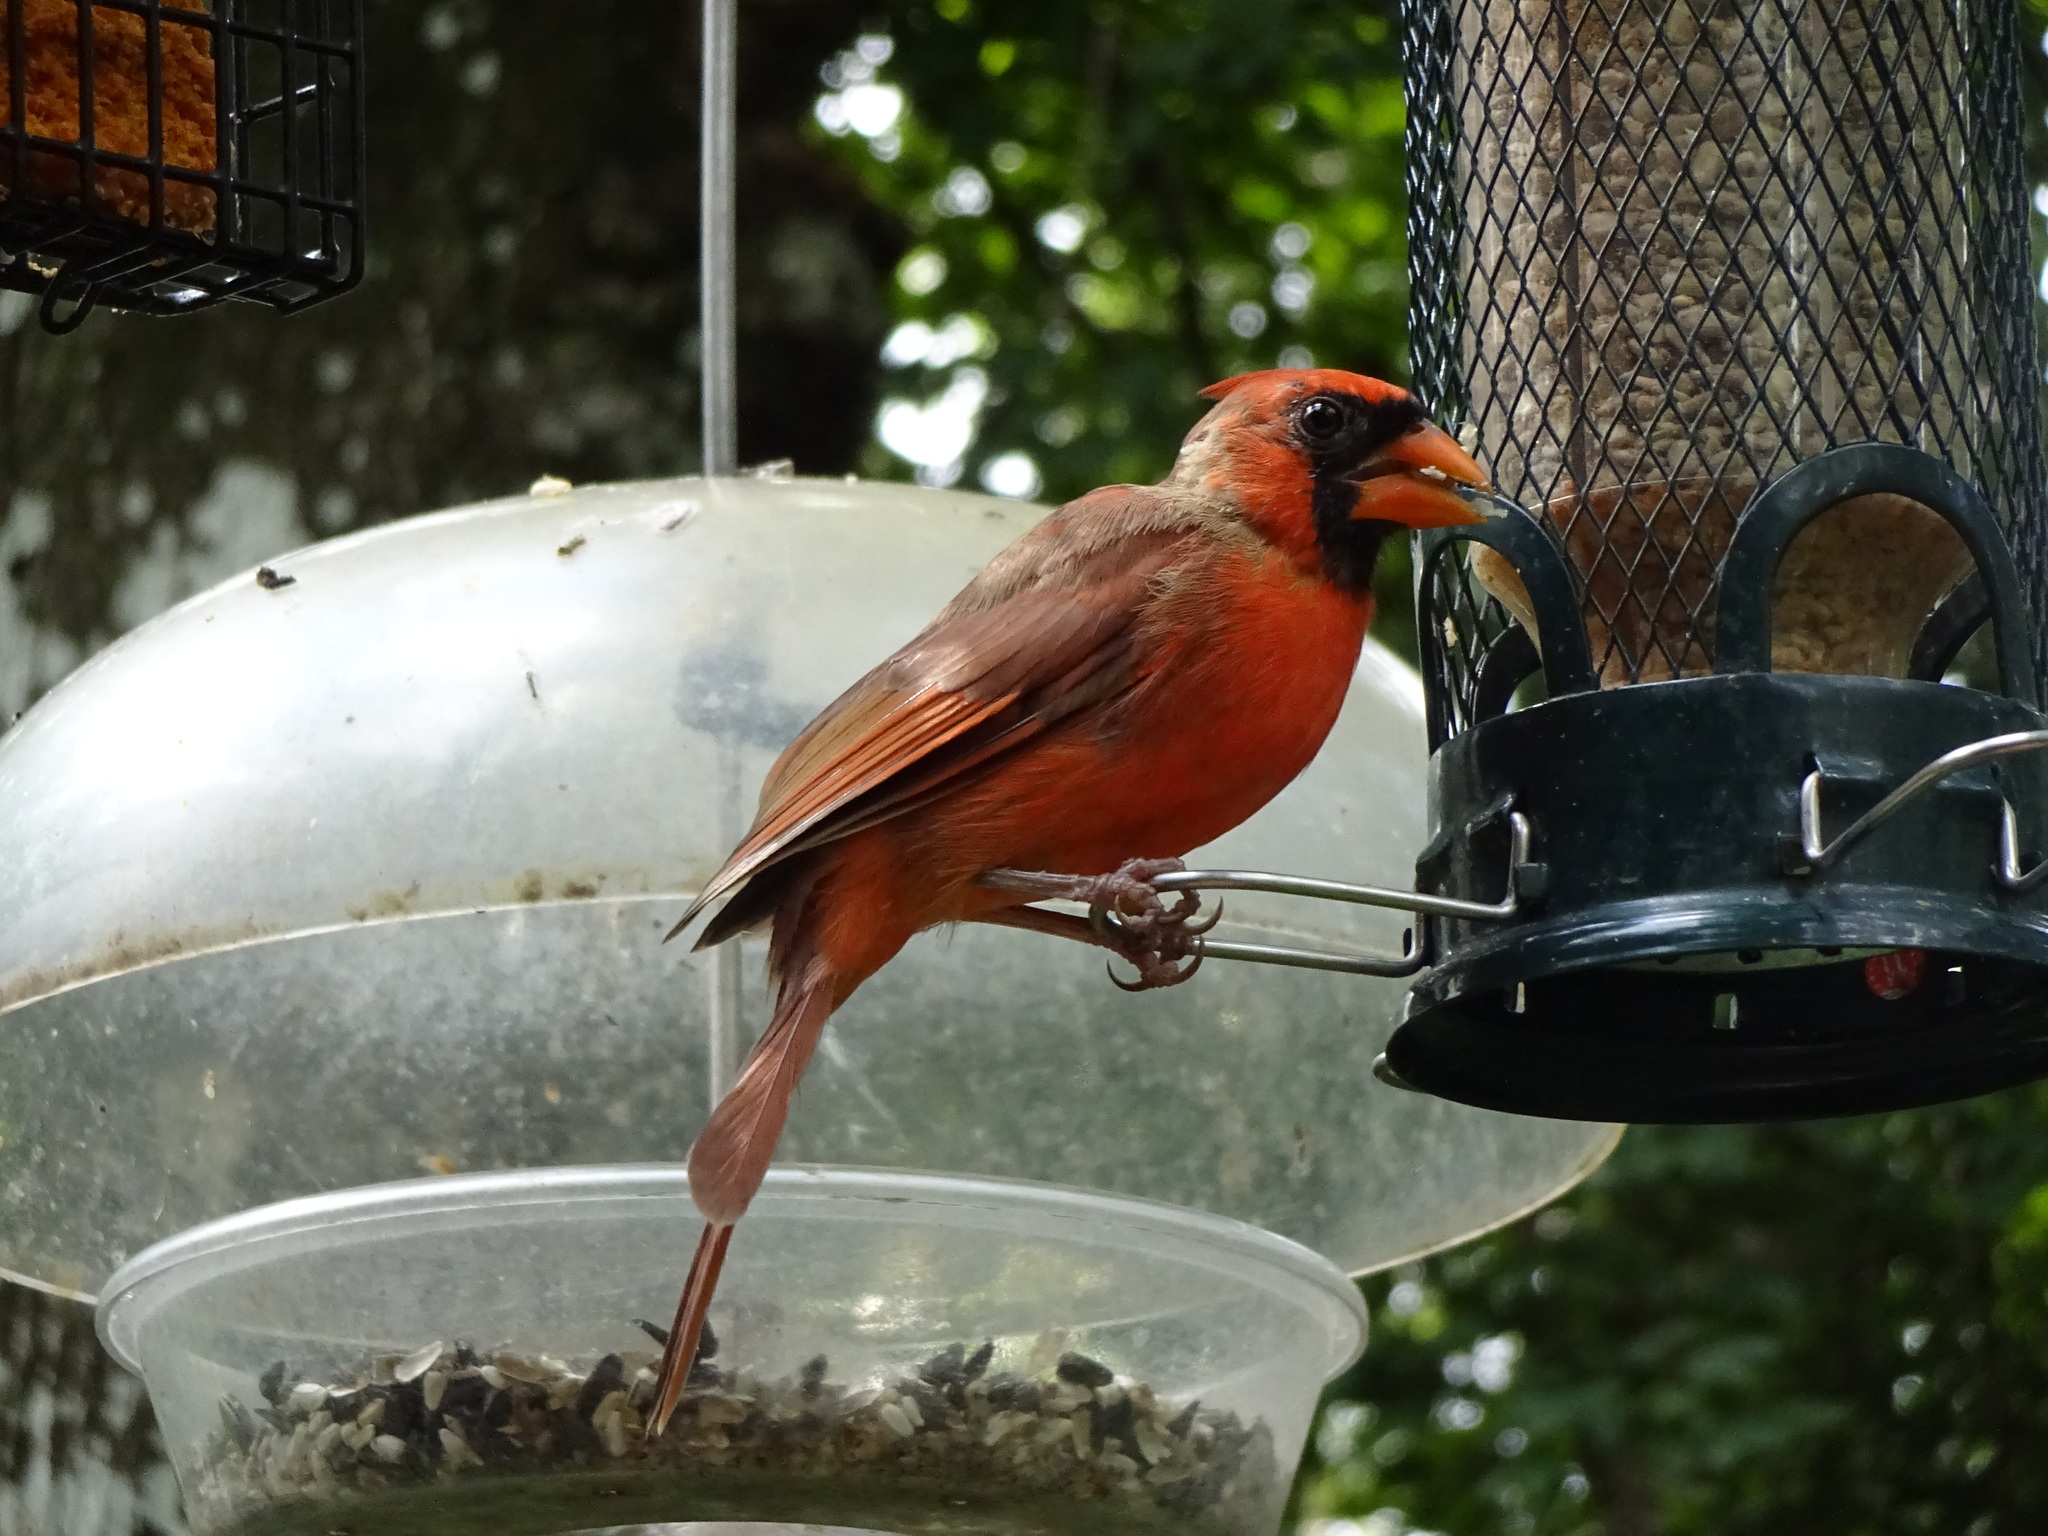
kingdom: Animalia
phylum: Chordata
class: Aves
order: Passeriformes
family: Cardinalidae
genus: Cardinalis
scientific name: Cardinalis cardinalis
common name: Northern cardinal
